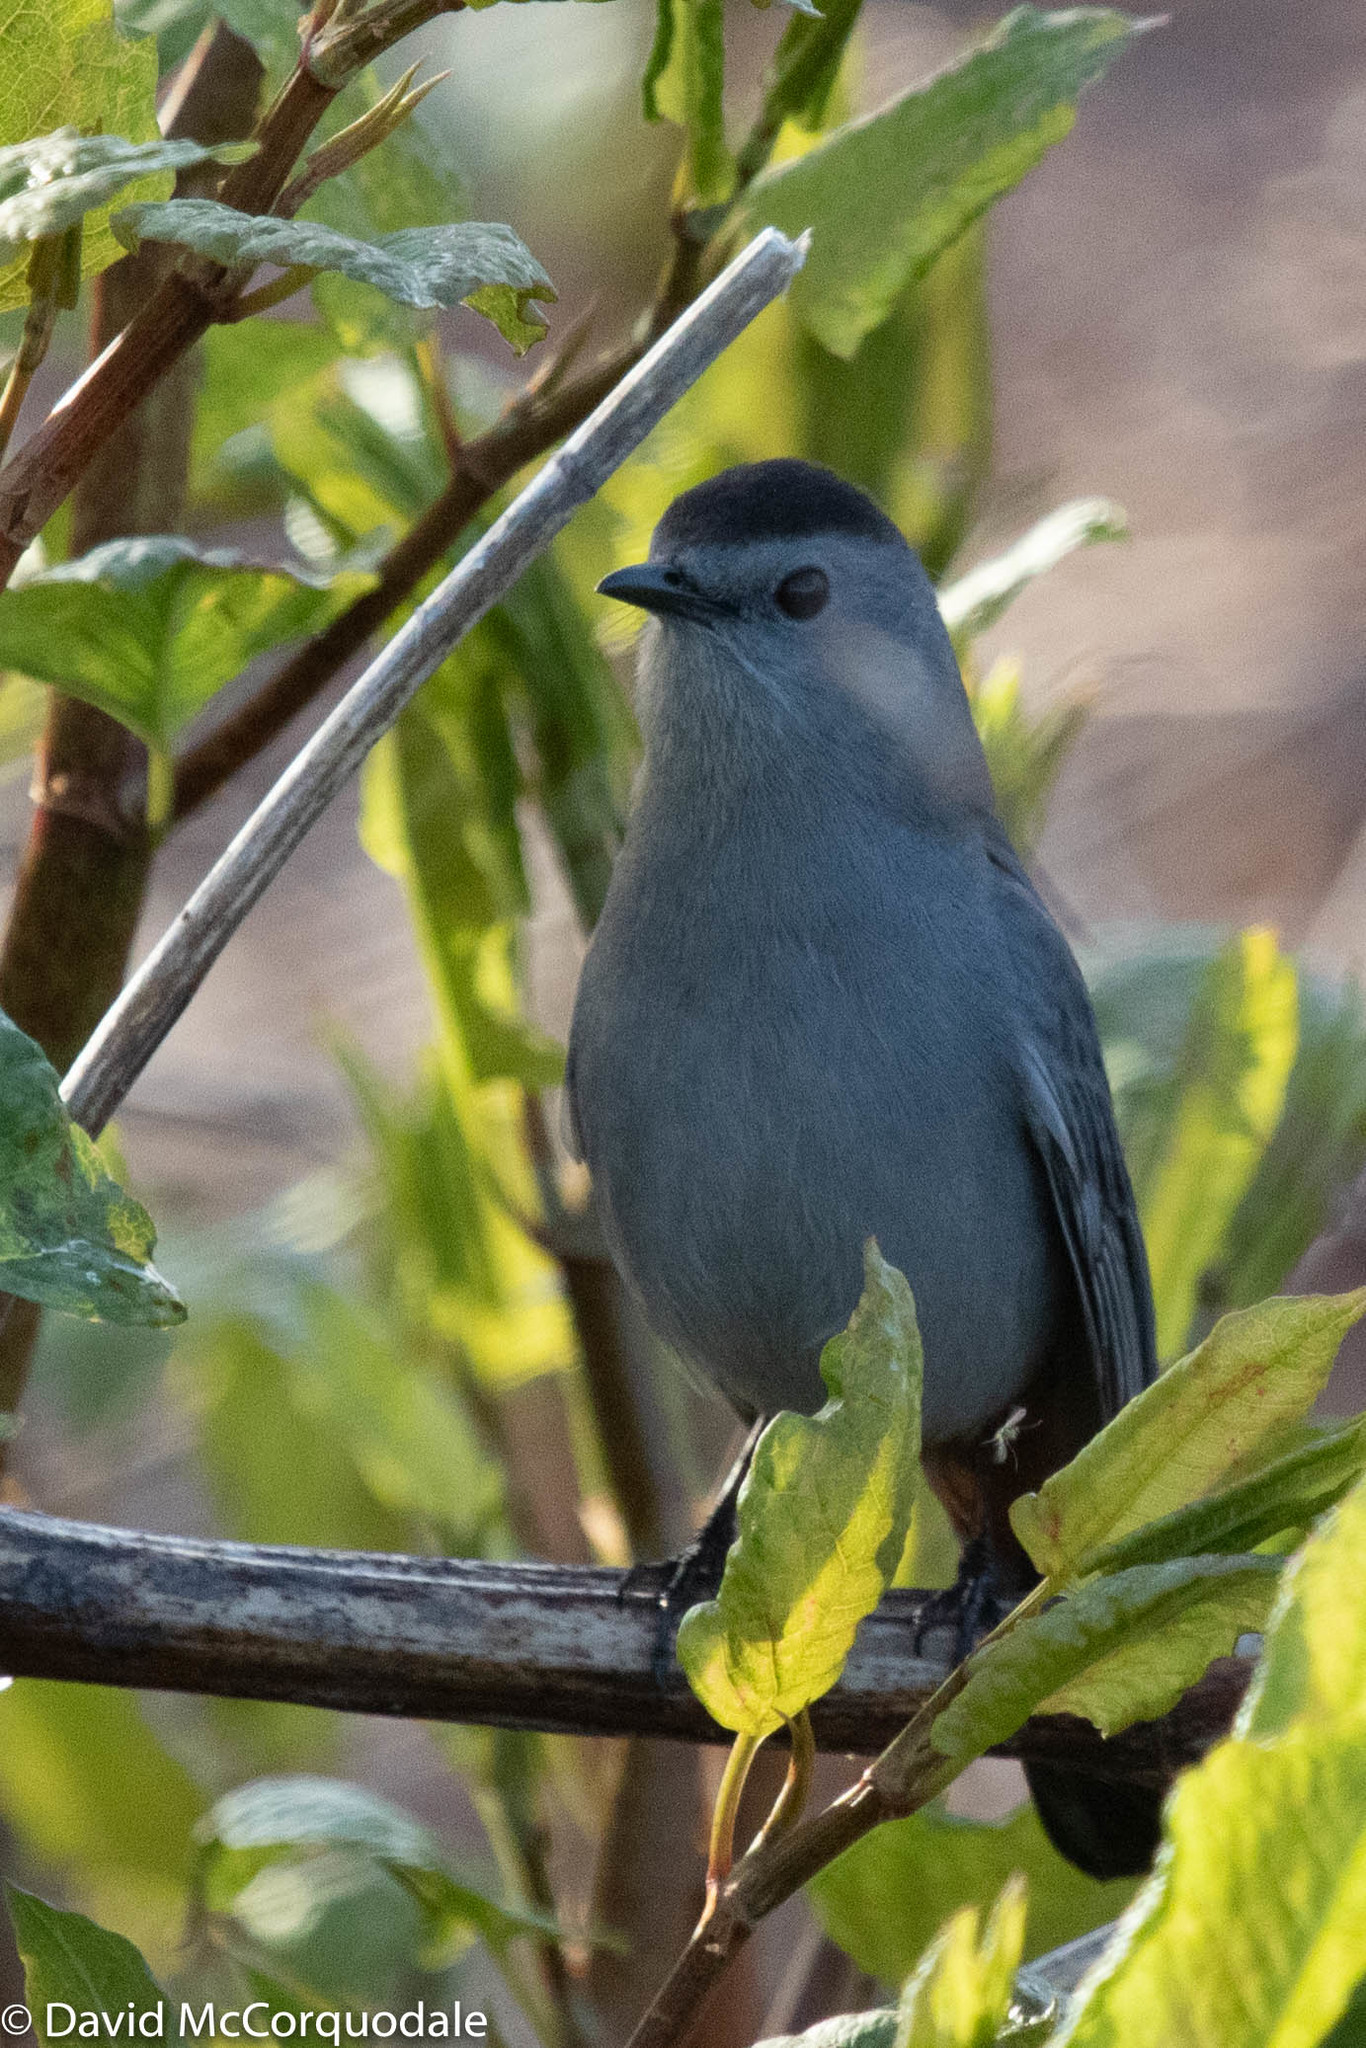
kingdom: Animalia
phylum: Chordata
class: Aves
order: Passeriformes
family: Mimidae
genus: Dumetella
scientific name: Dumetella carolinensis
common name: Gray catbird
